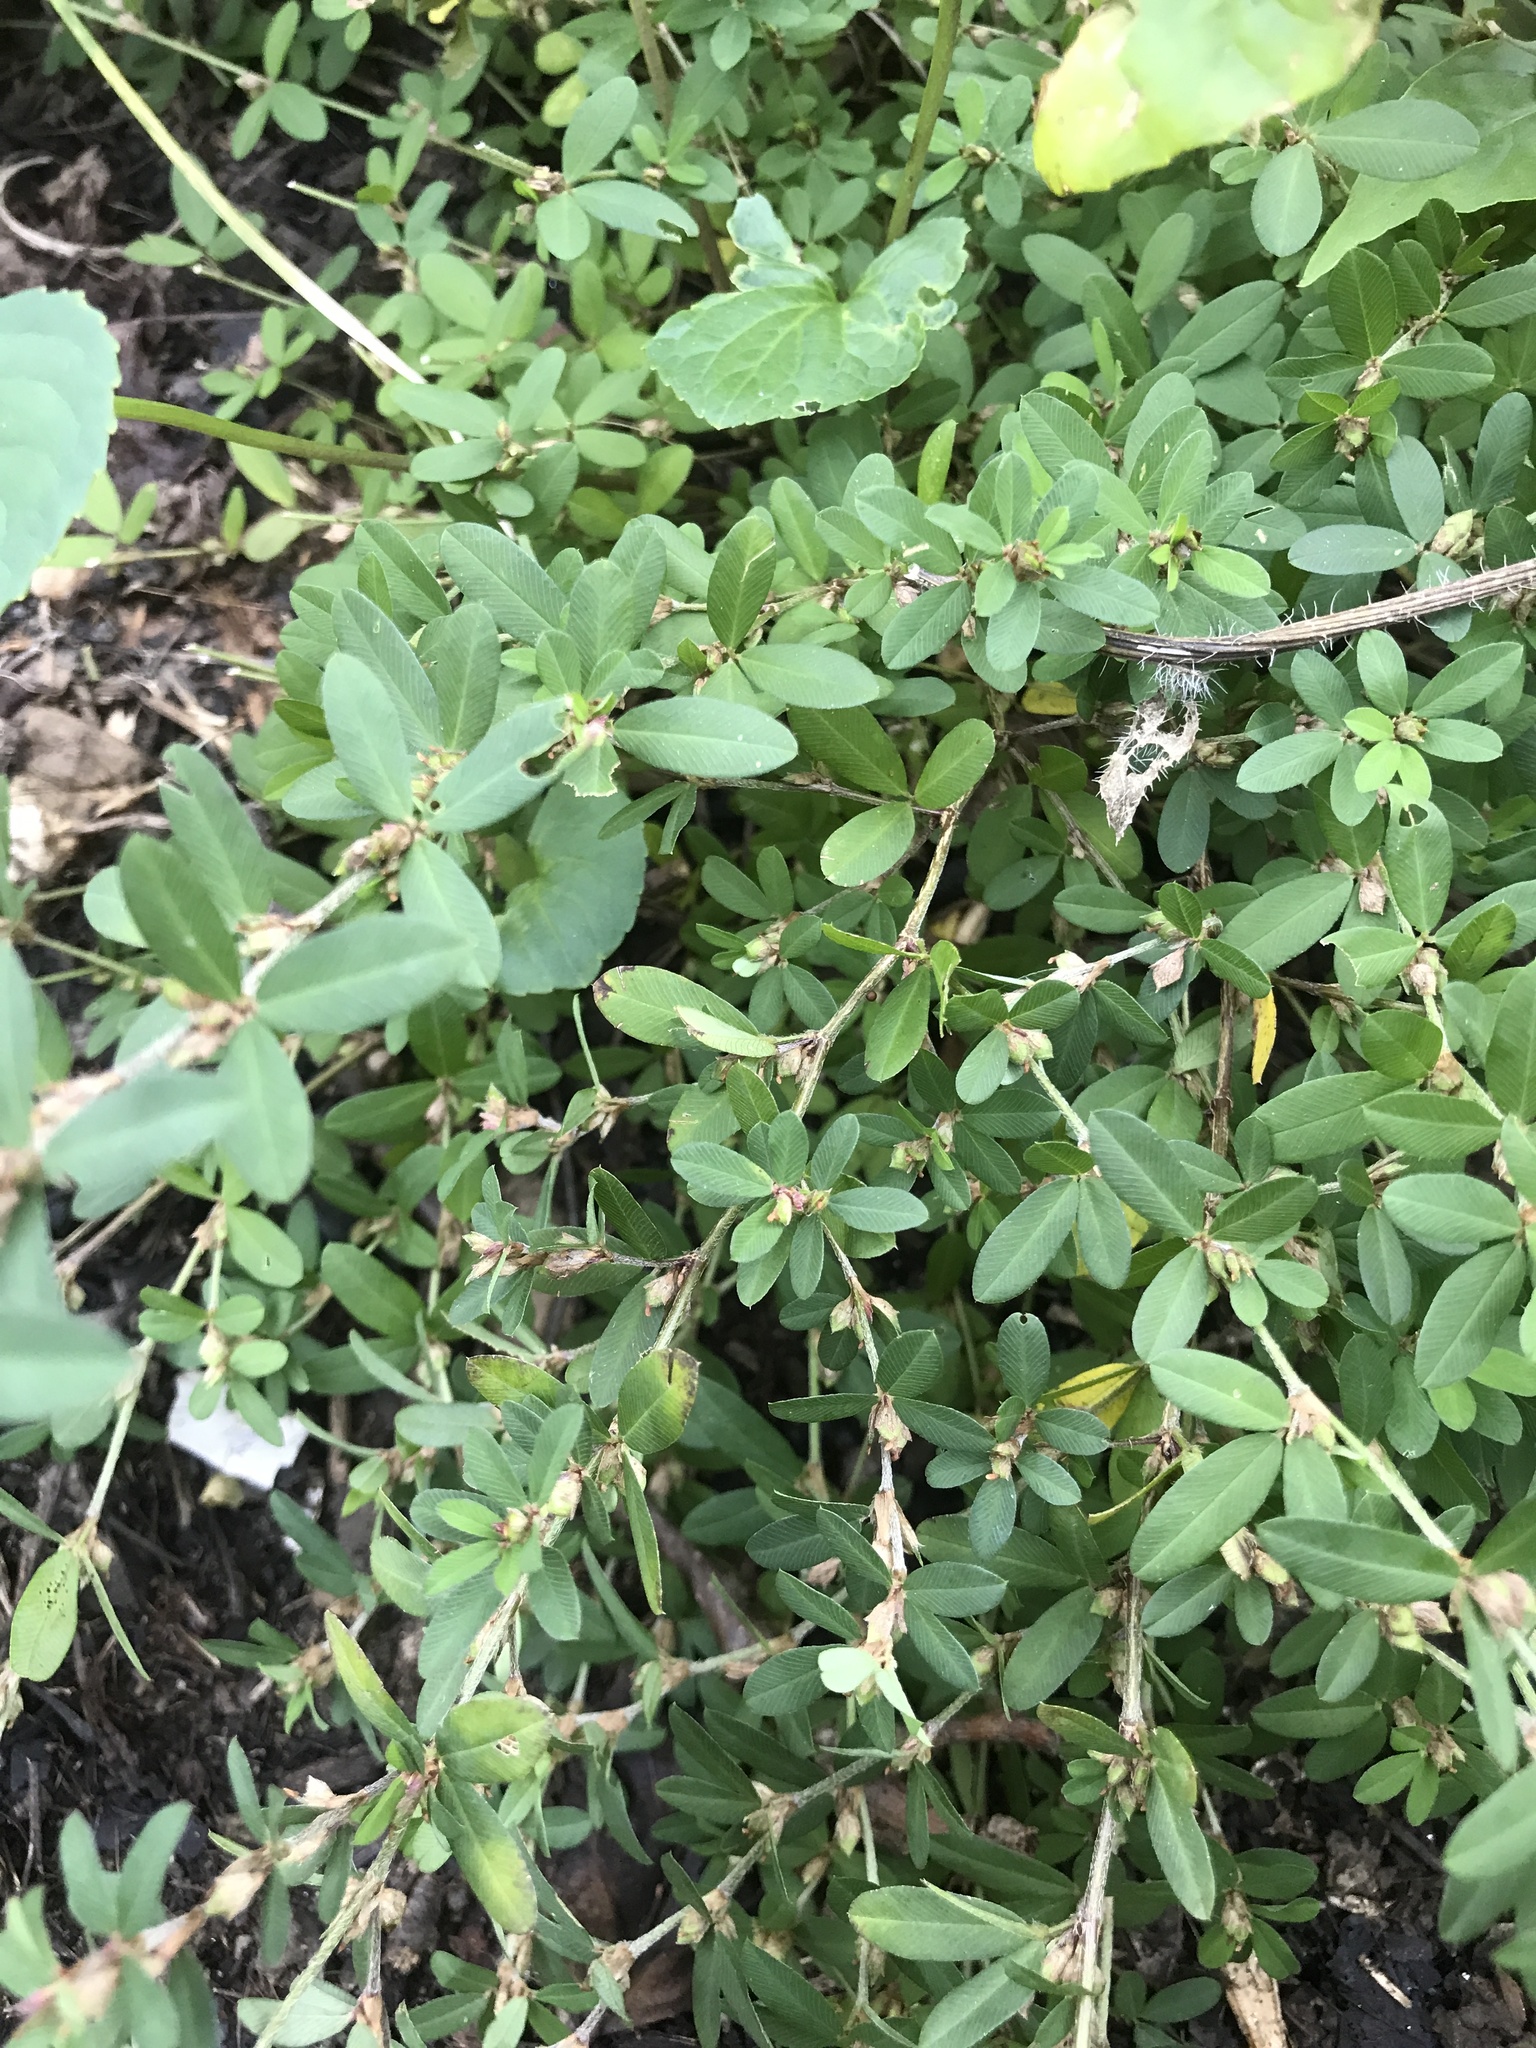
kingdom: Plantae
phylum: Tracheophyta
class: Magnoliopsida
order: Fabales
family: Fabaceae
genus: Kummerowia
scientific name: Kummerowia striata
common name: Japanese clover
